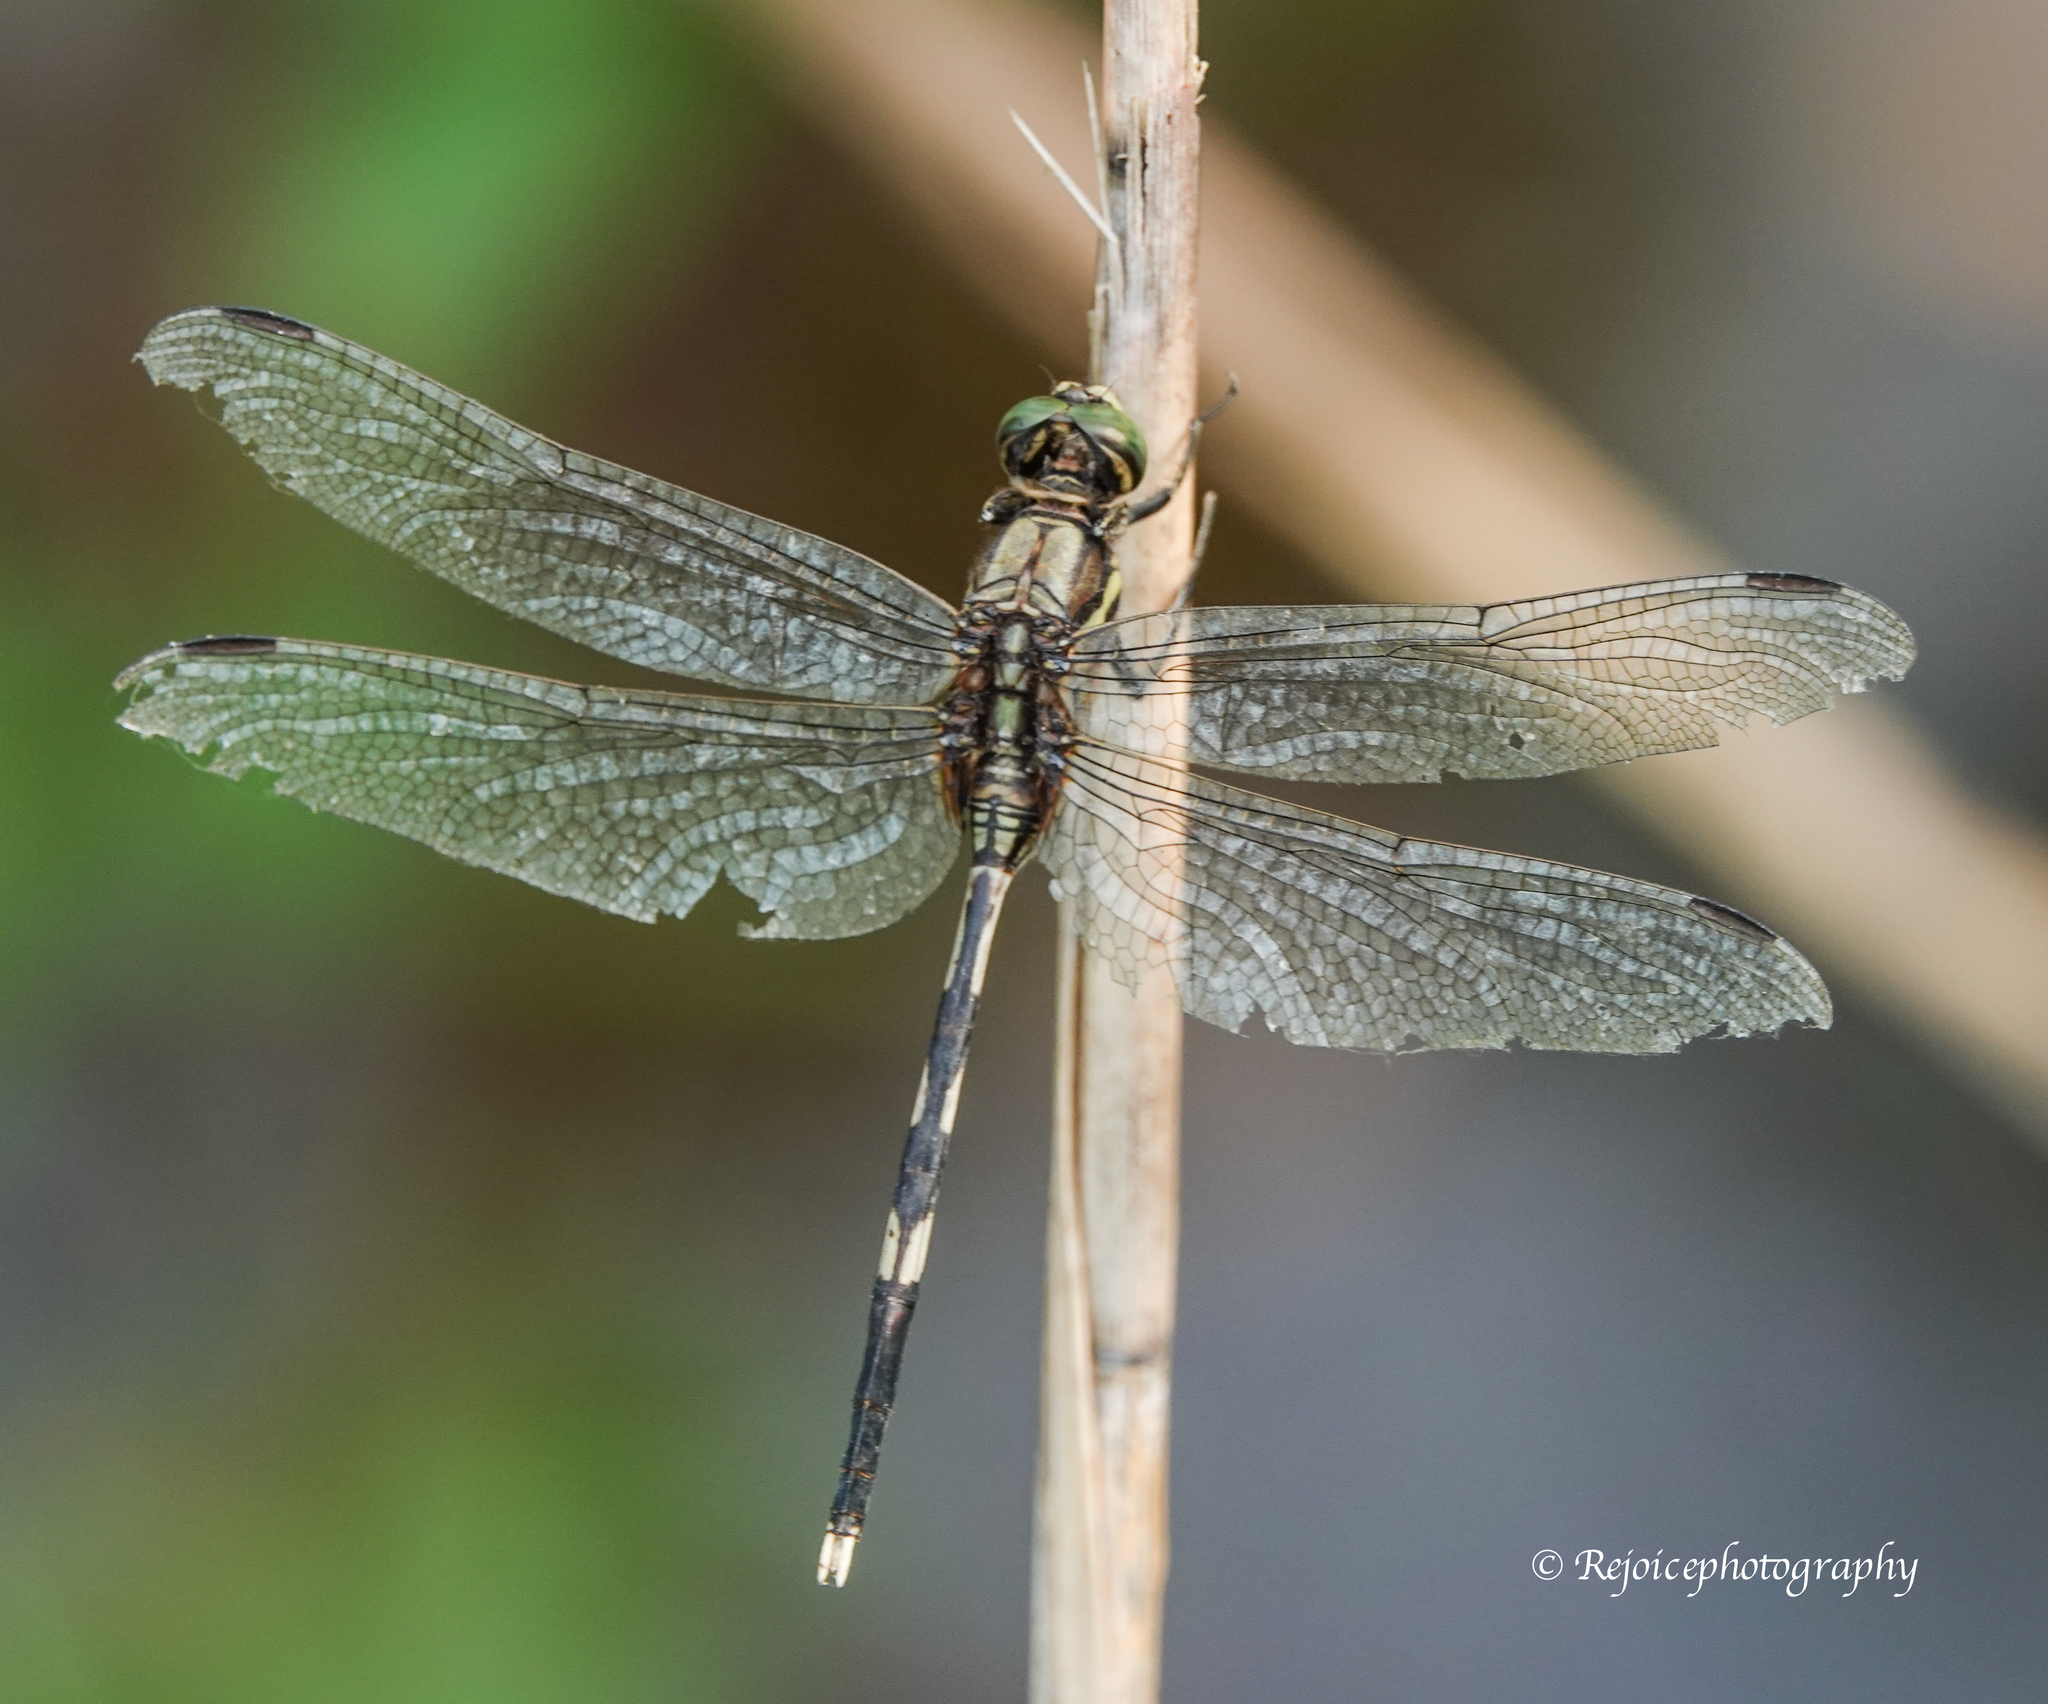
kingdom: Animalia
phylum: Arthropoda
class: Insecta
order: Odonata
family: Libellulidae
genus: Orthetrum
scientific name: Orthetrum sabina
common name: Slender skimmer
